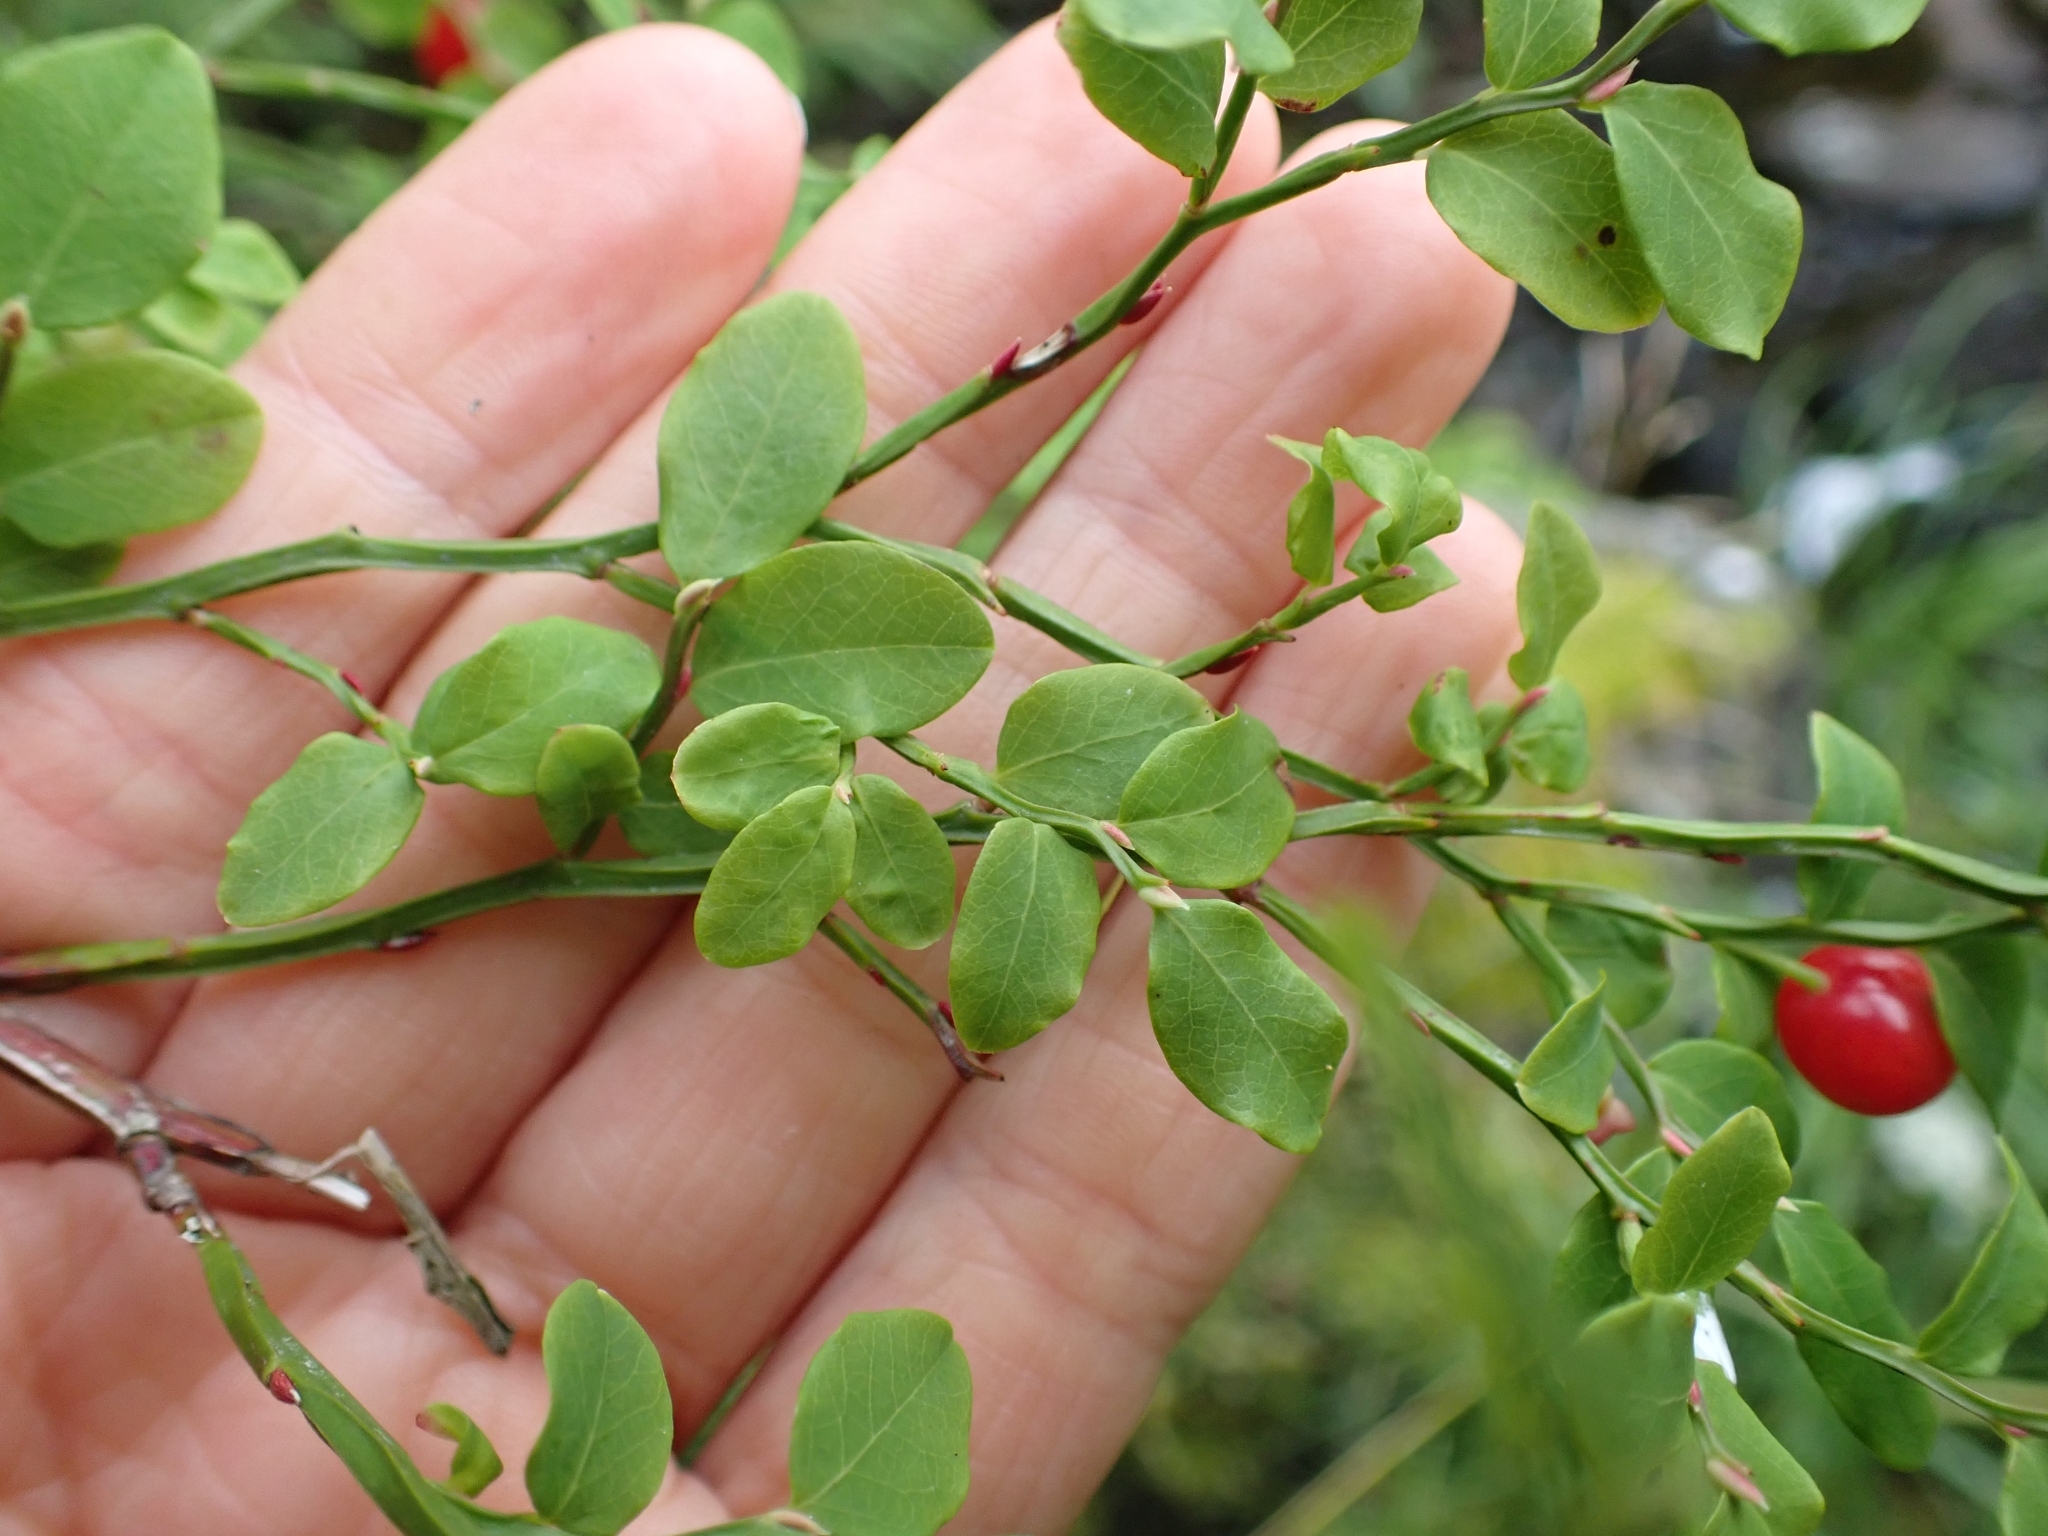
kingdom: Plantae
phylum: Tracheophyta
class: Magnoliopsida
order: Ericales
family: Ericaceae
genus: Vaccinium
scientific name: Vaccinium parvifolium
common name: Red-huckleberry
